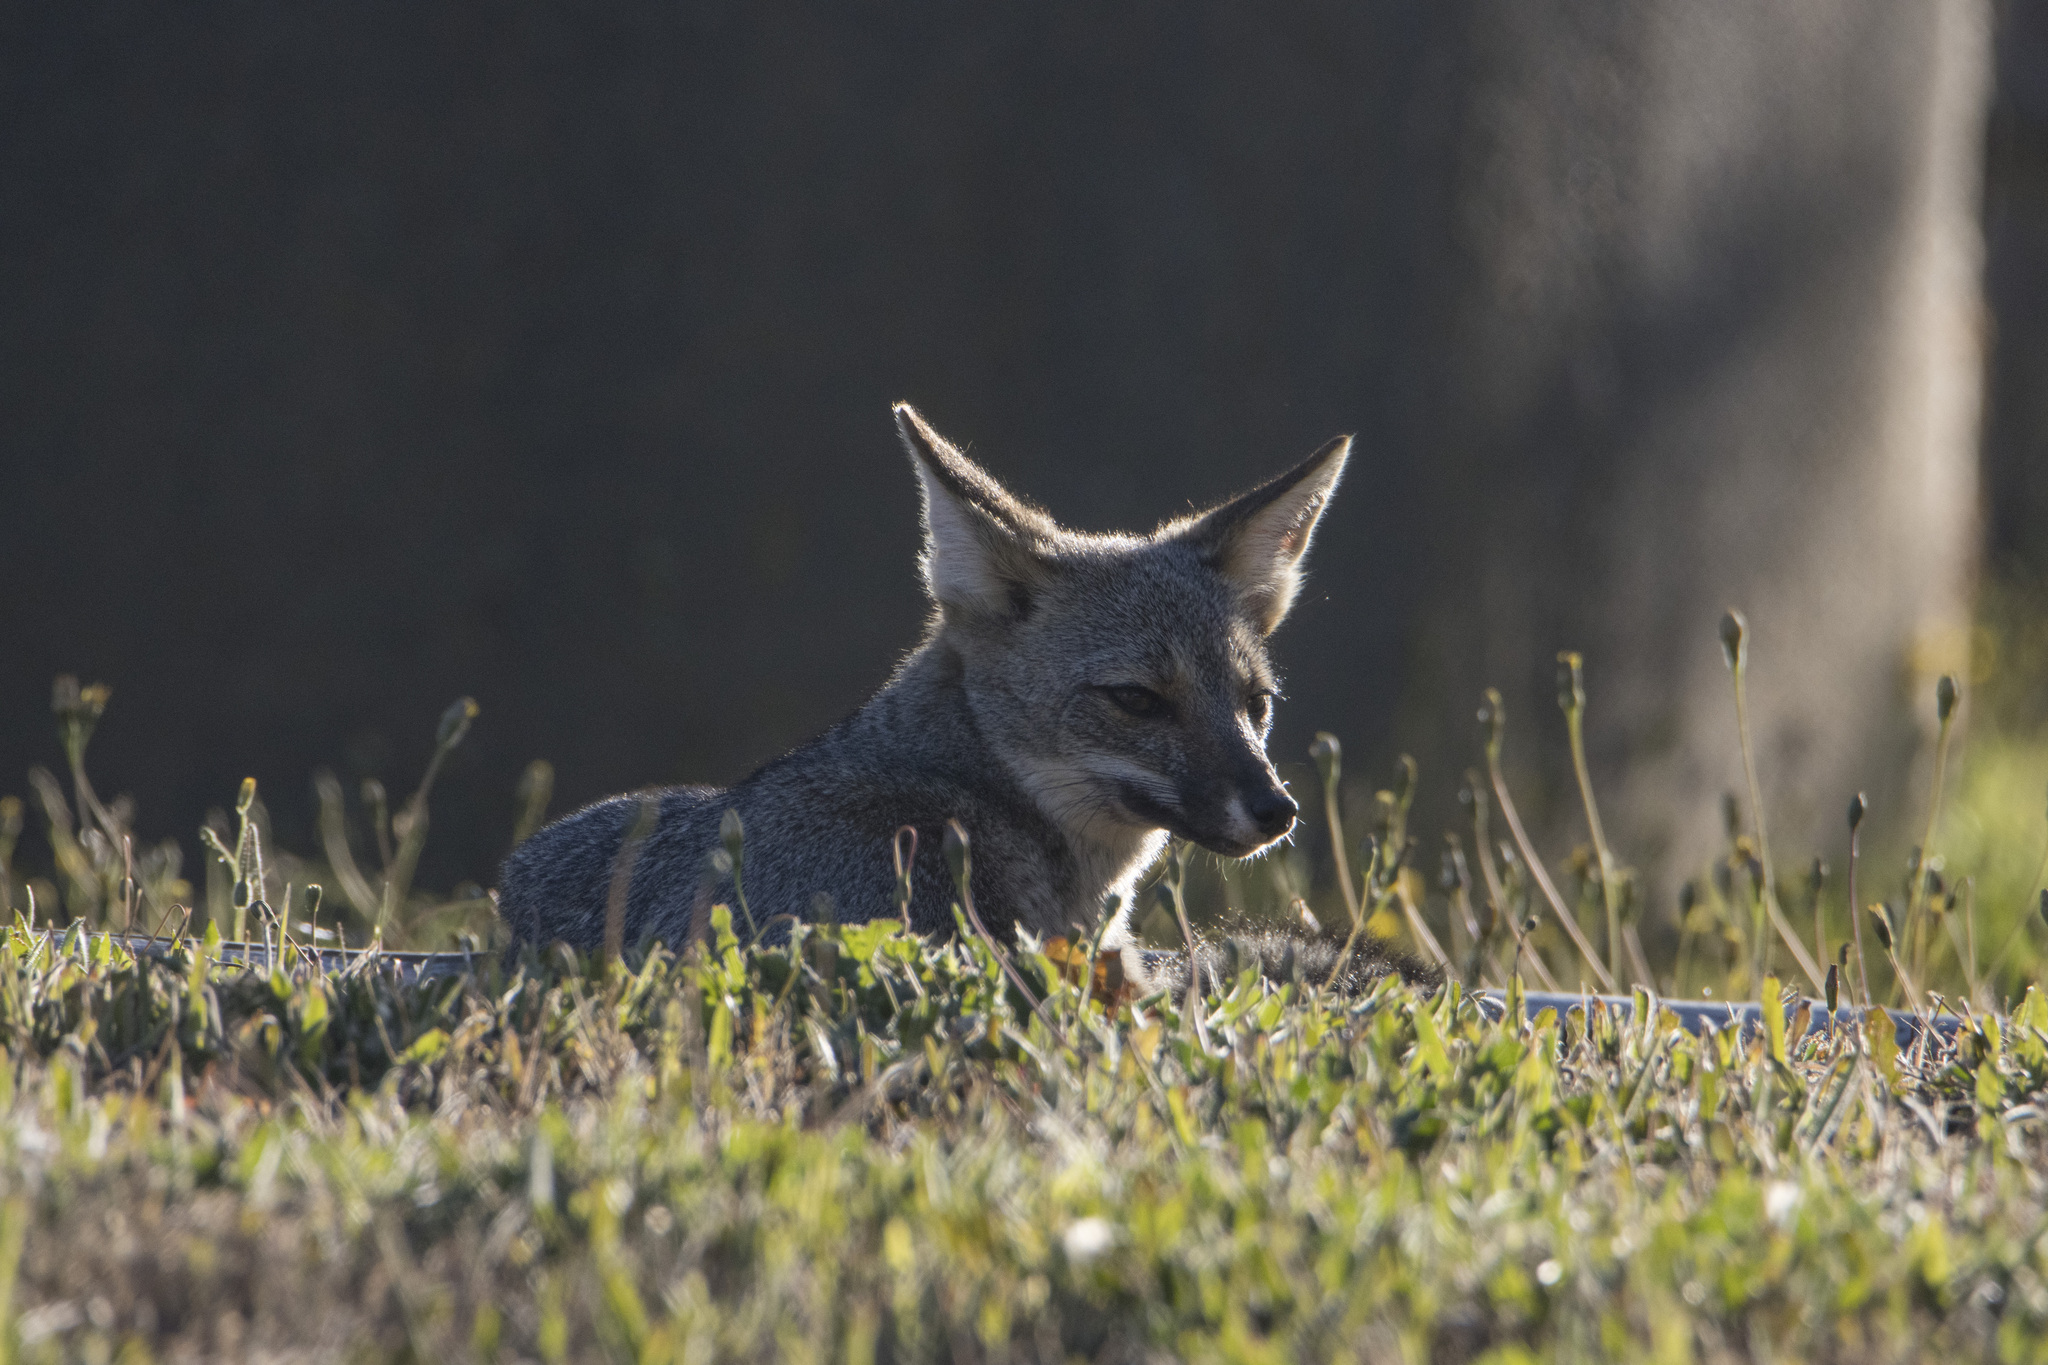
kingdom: Animalia
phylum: Chordata
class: Mammalia
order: Carnivora
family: Canidae
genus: Lycalopex
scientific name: Lycalopex gymnocercus
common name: Pampas fox
